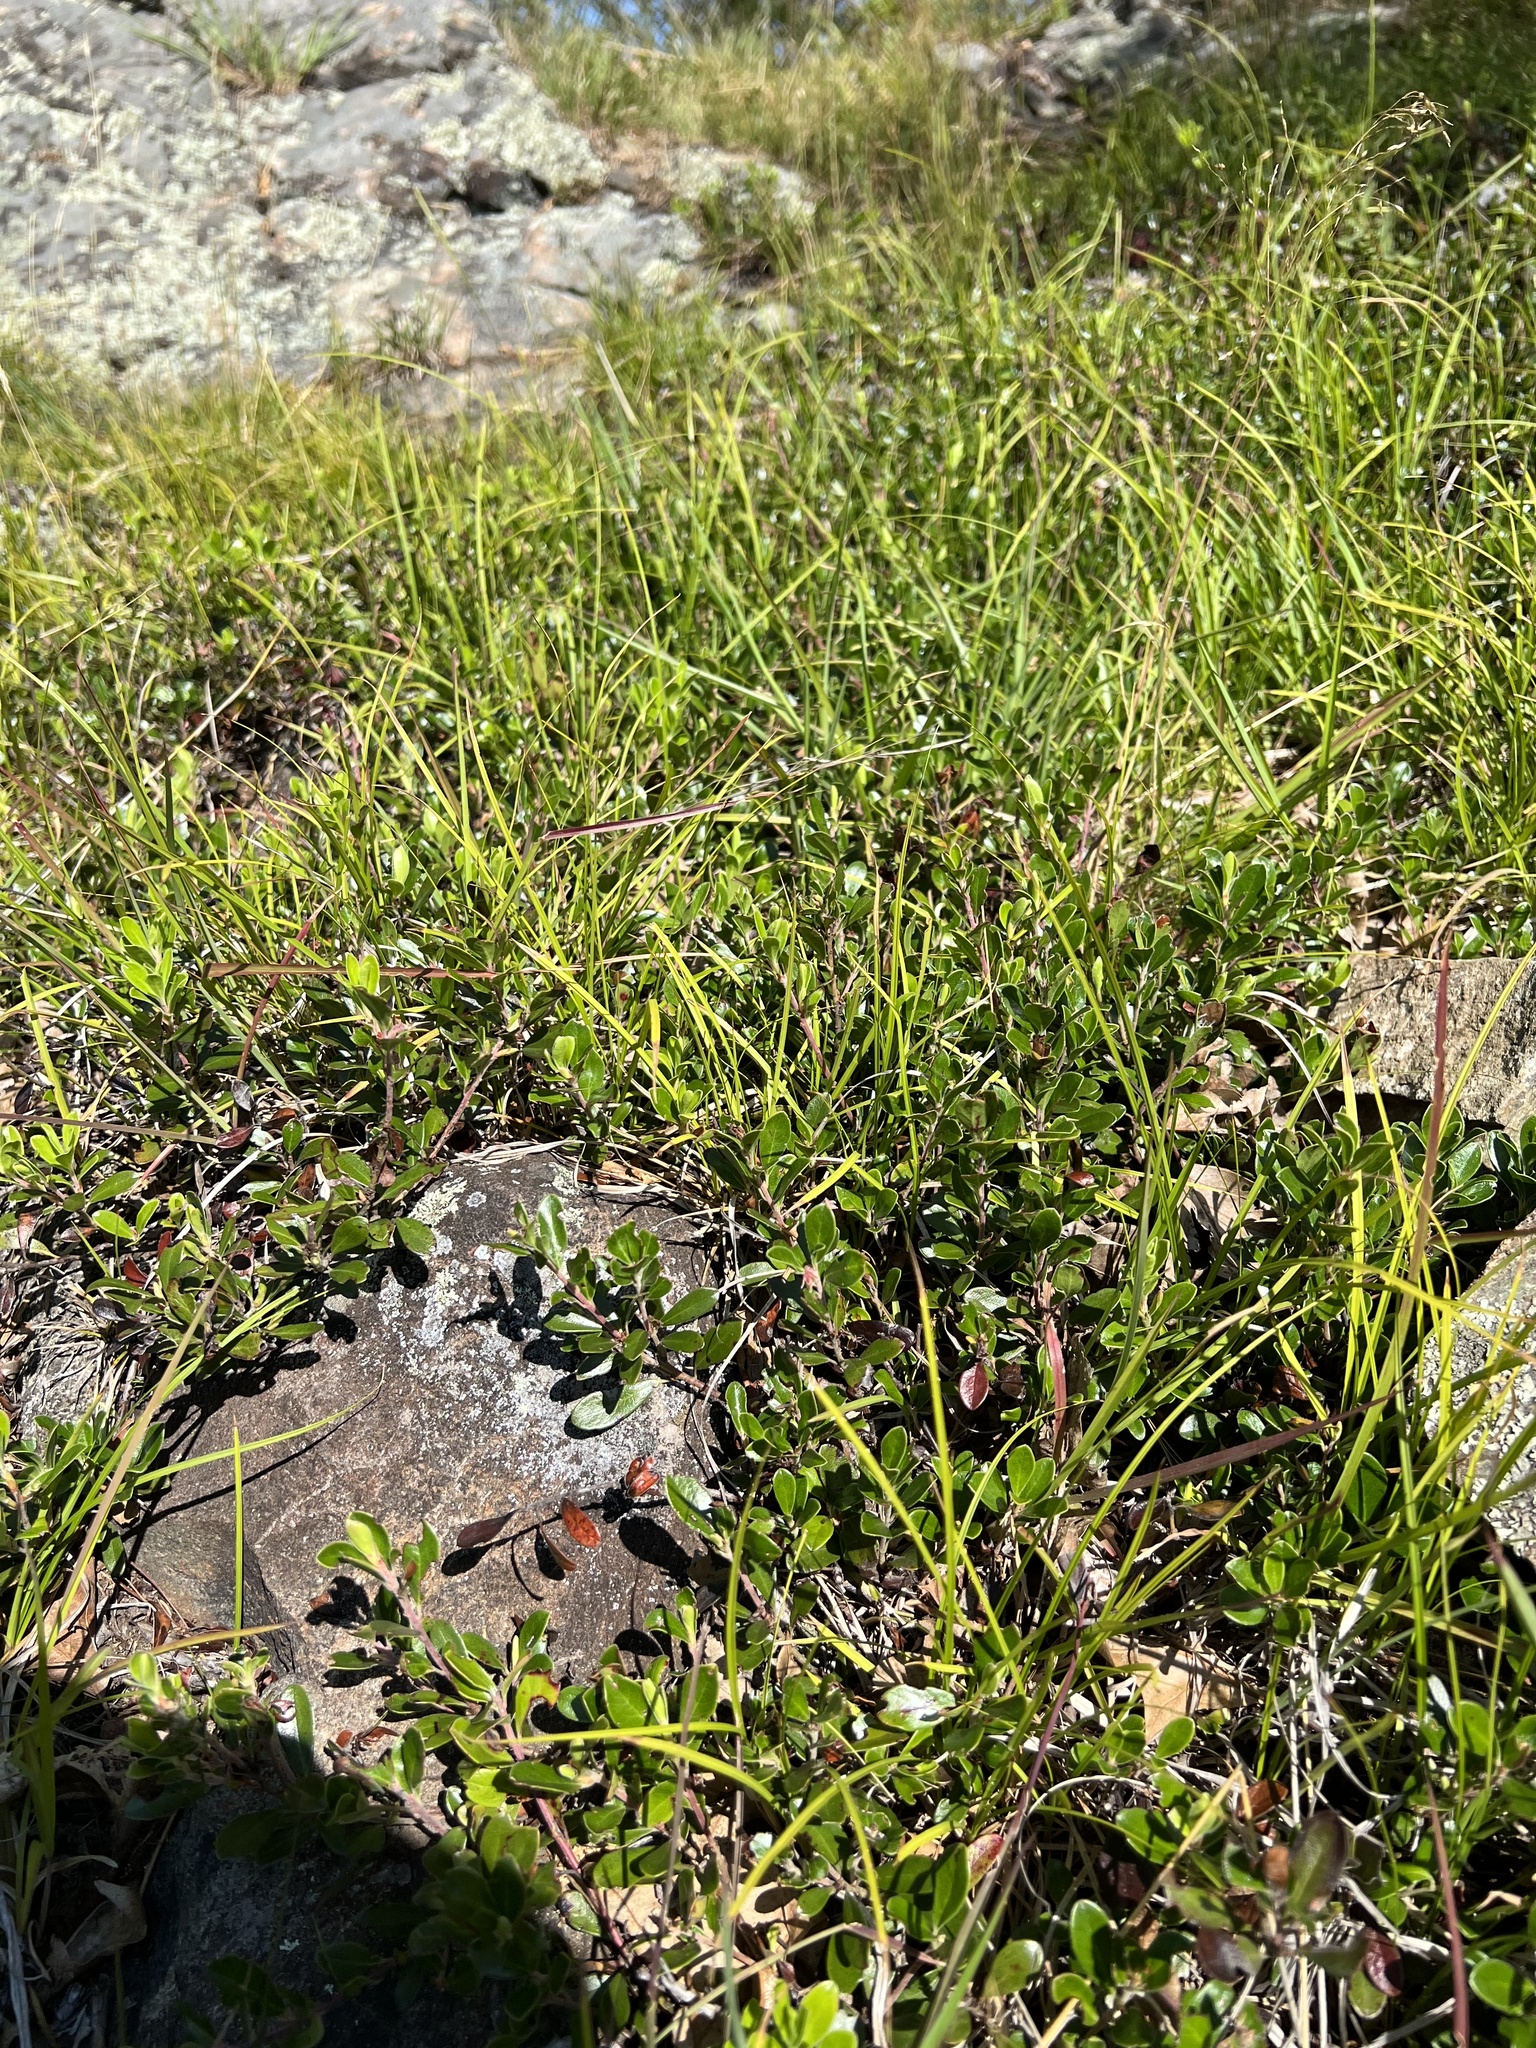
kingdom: Plantae
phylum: Tracheophyta
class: Magnoliopsida
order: Ericales
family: Ericaceae
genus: Arctostaphylos
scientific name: Arctostaphylos uva-ursi
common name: Bearberry
